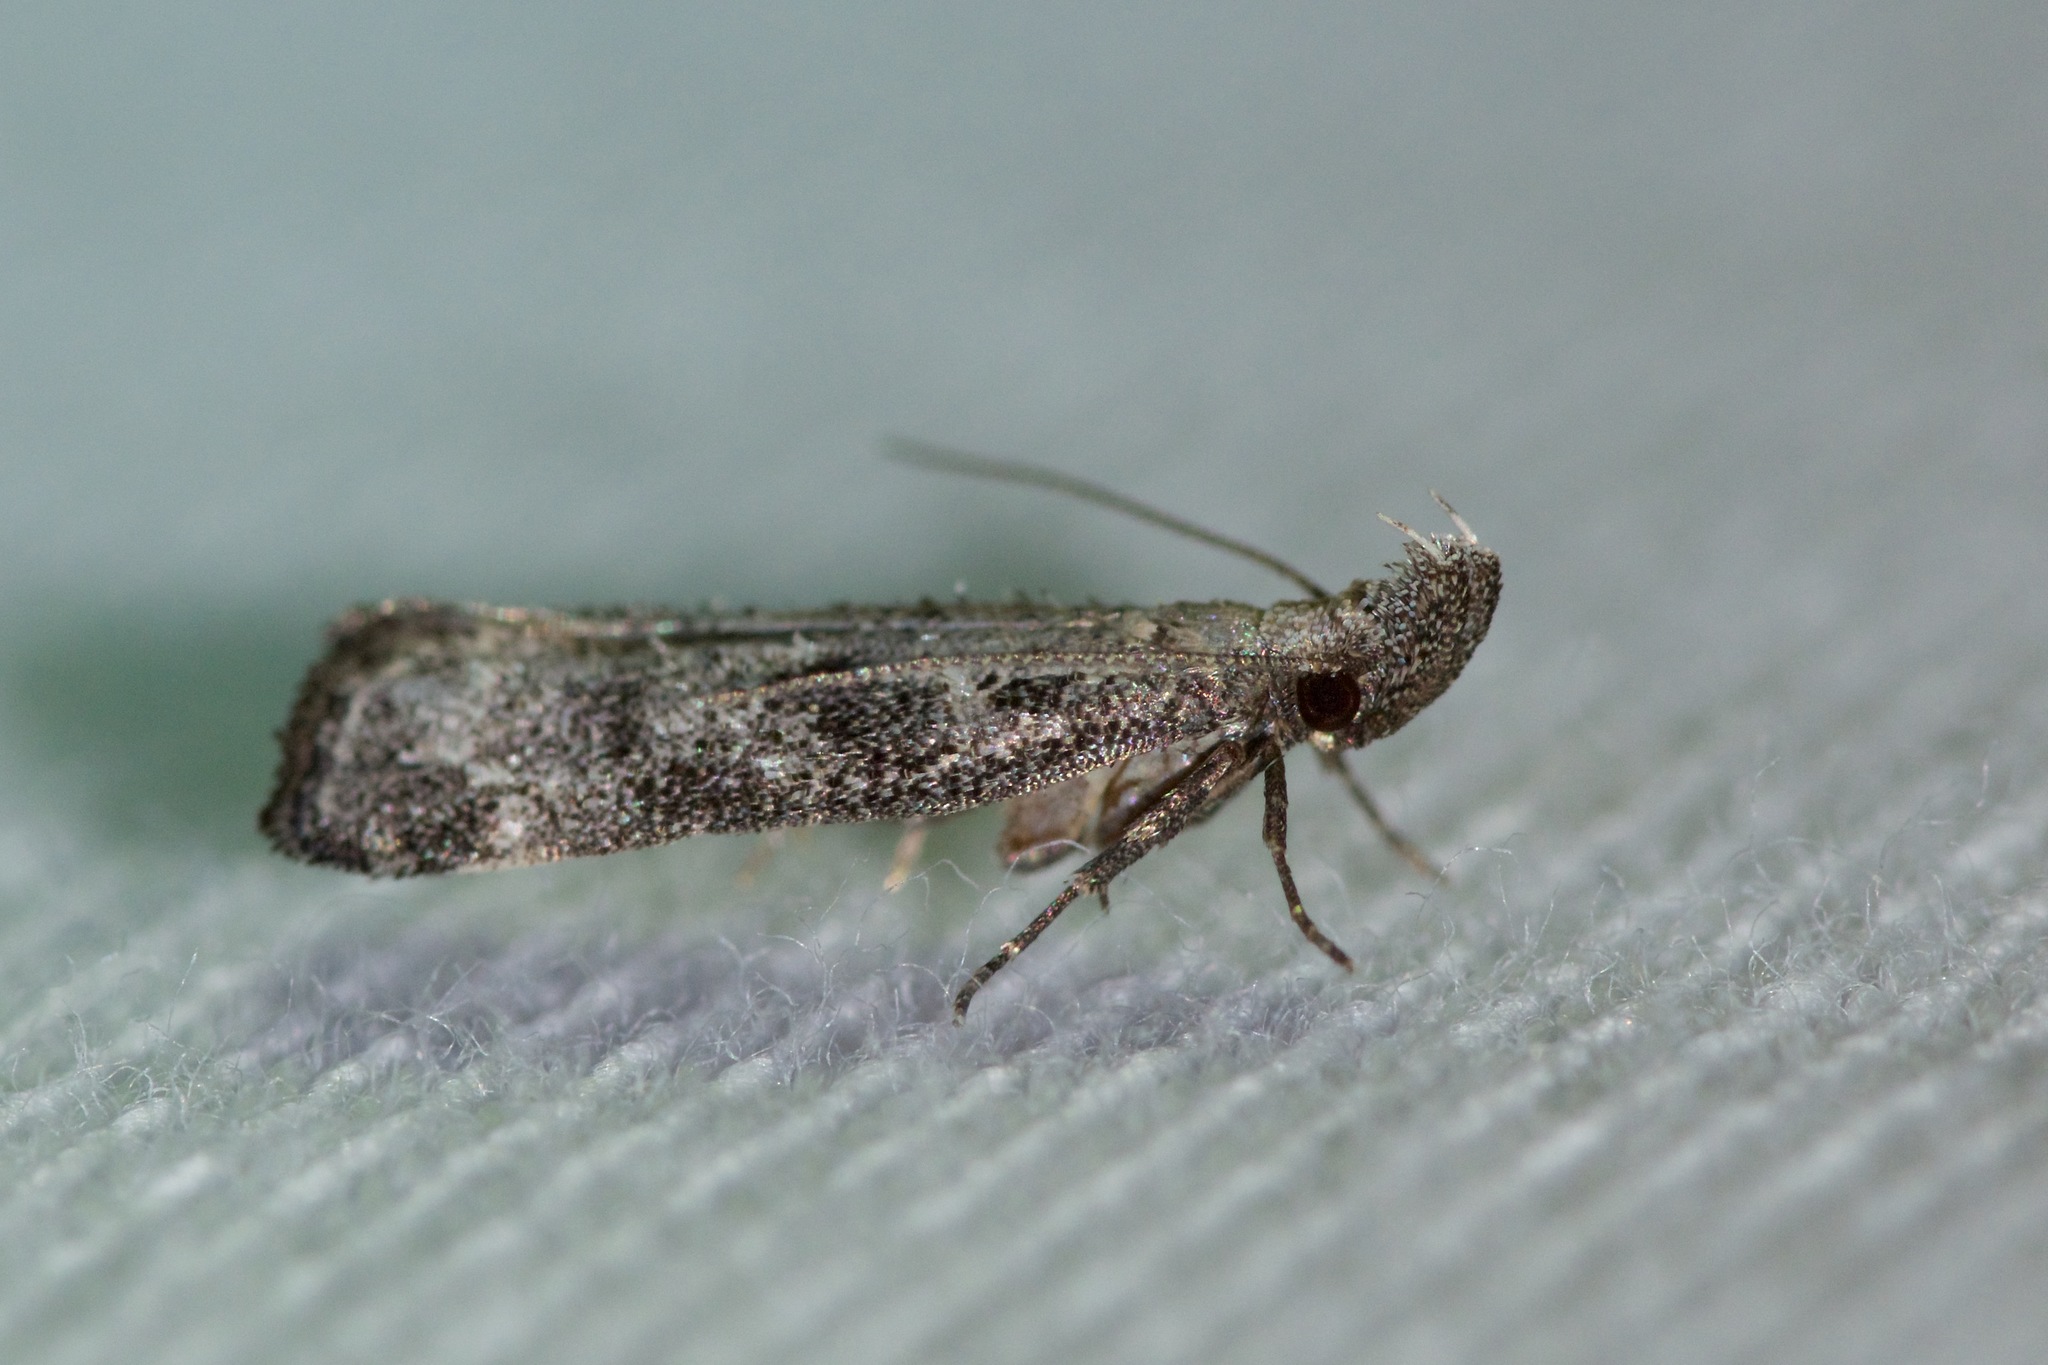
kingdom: Animalia
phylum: Arthropoda
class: Insecta
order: Lepidoptera
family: Gelechiidae
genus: Dichomeris
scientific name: Dichomeris inversella
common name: Inverse dichomeris moth
